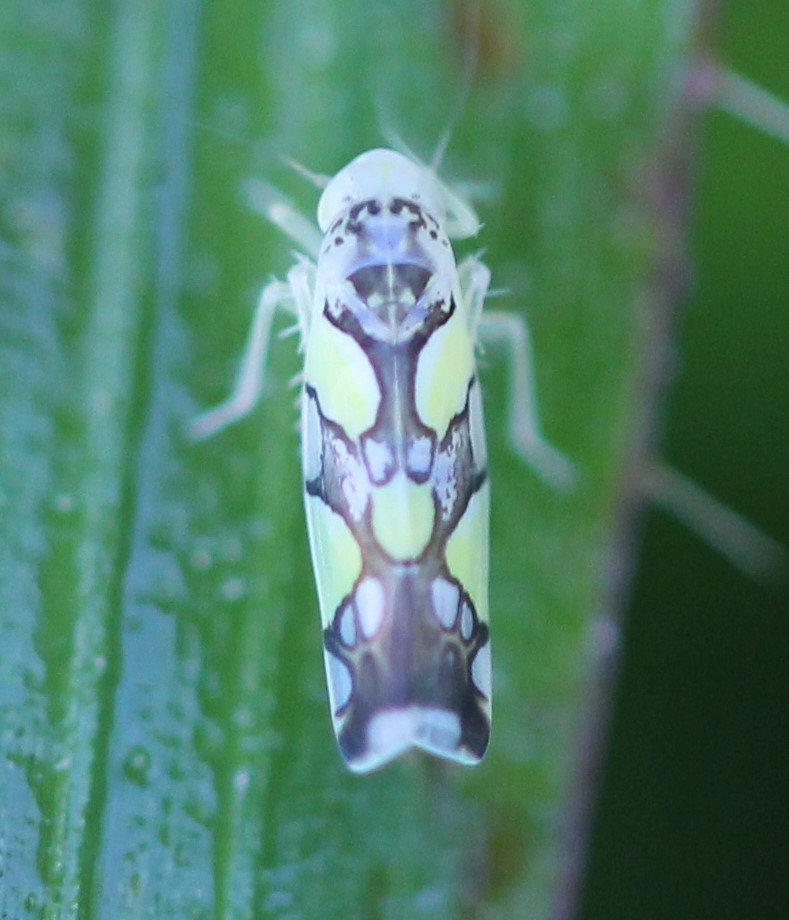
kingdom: Animalia
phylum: Arthropoda
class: Insecta
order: Hemiptera
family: Cicadellidae
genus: Protalebrella
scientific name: Protalebrella brasiliensis
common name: Brasilian leafhopper
